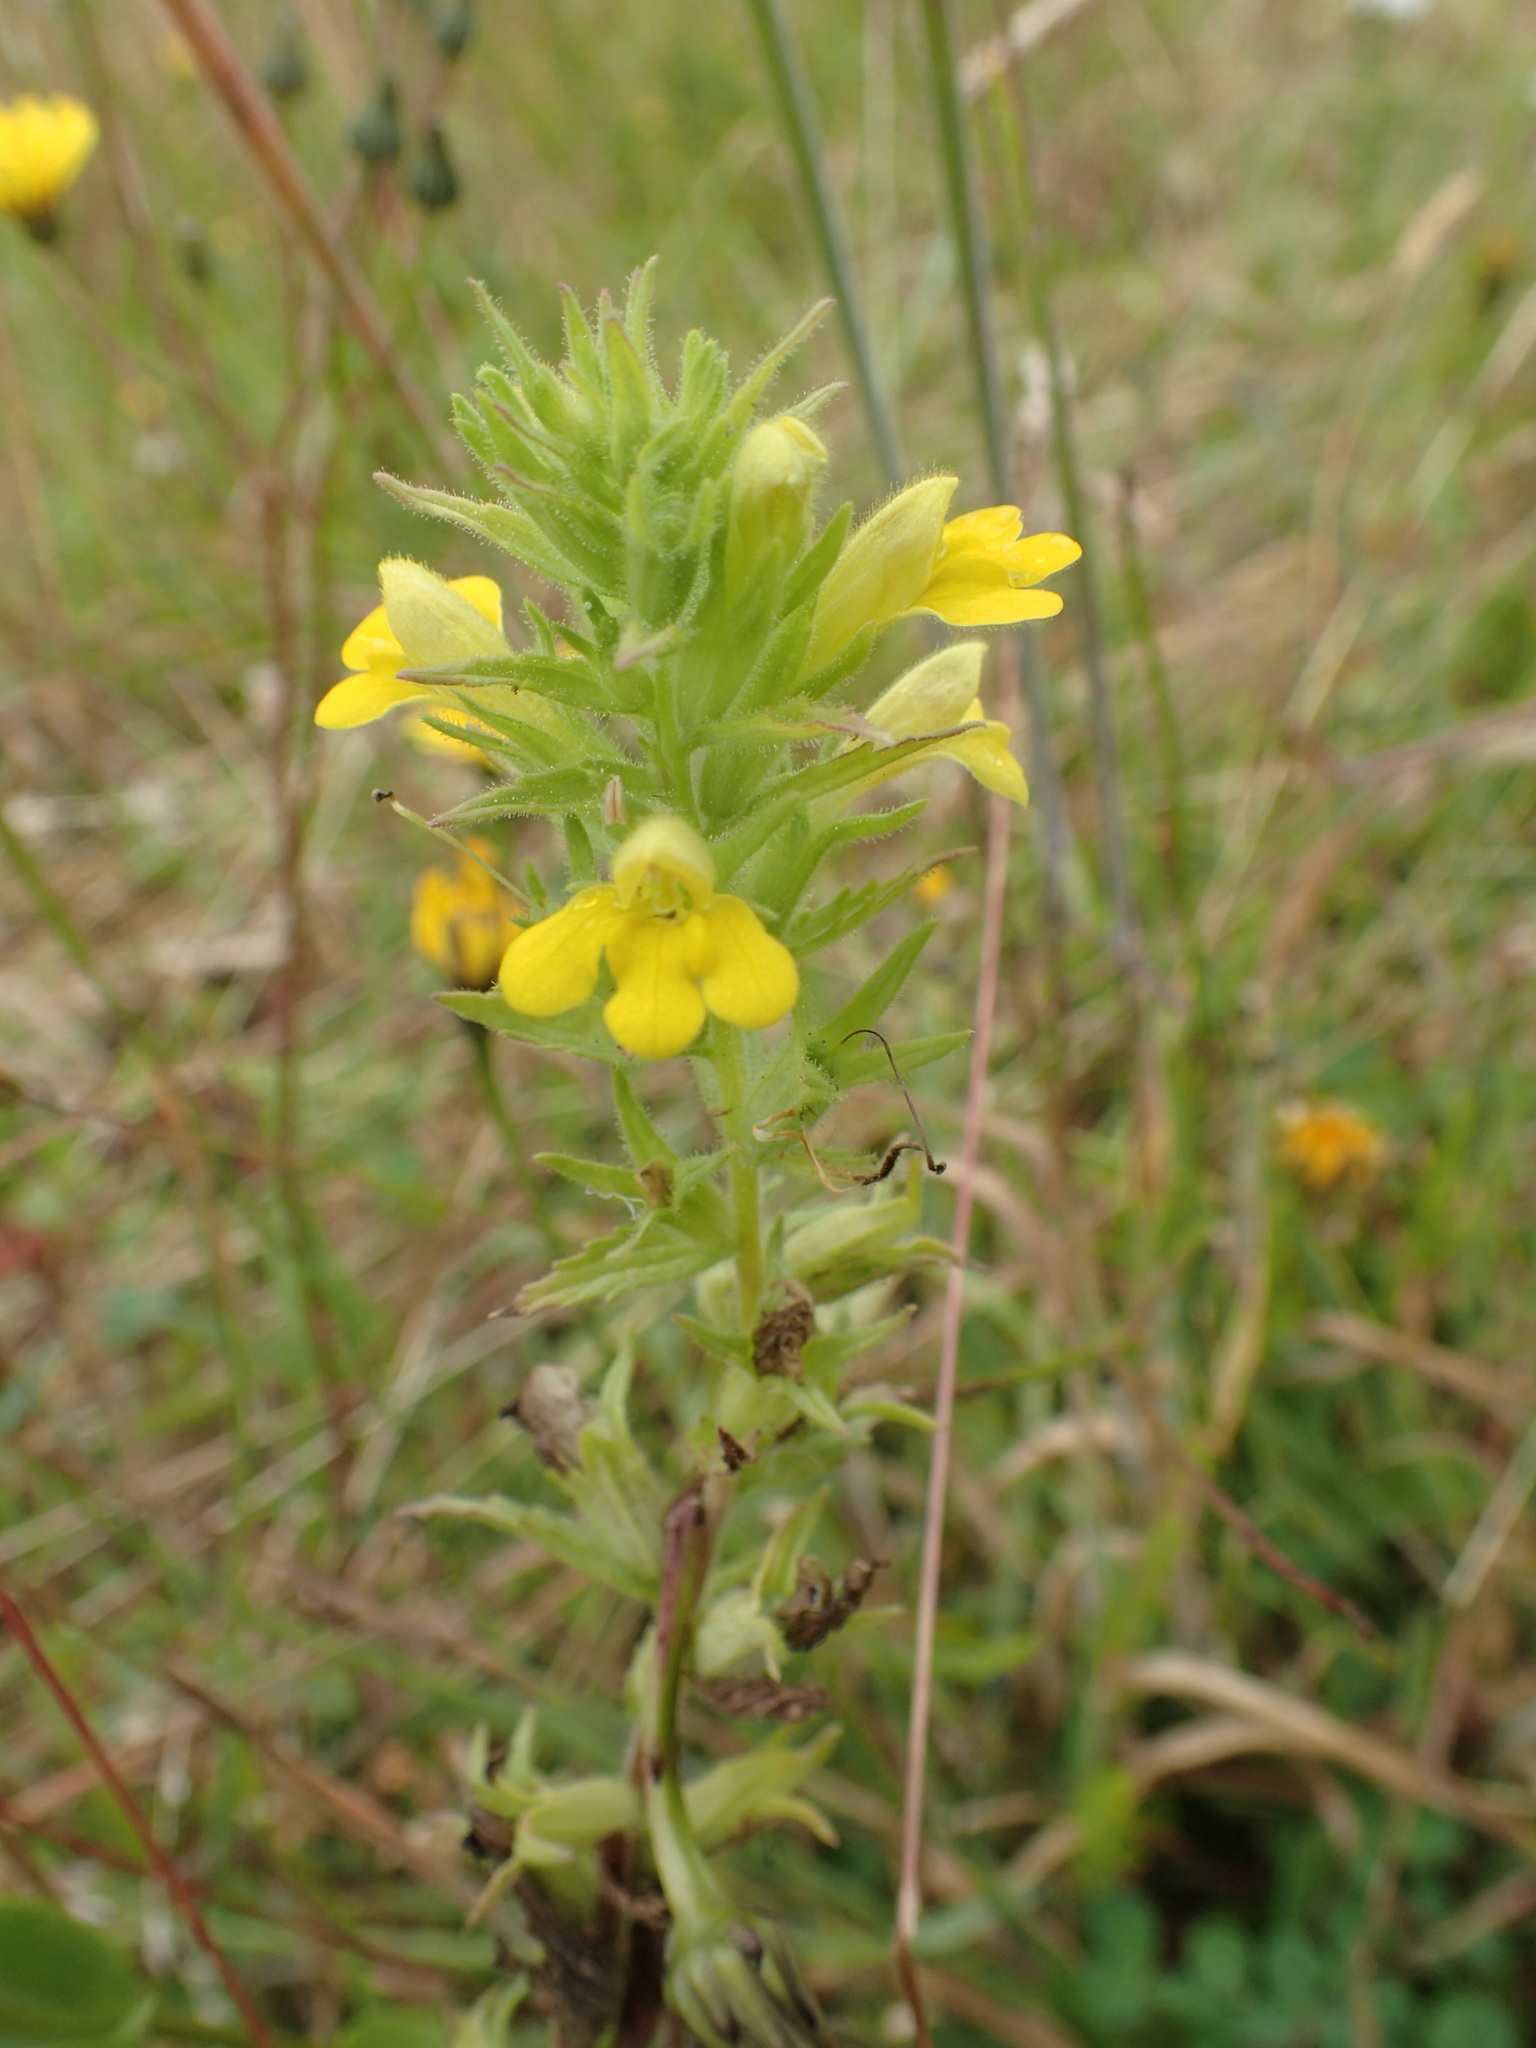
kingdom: Plantae
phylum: Tracheophyta
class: Magnoliopsida
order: Lamiales
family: Orobanchaceae
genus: Bellardia
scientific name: Bellardia viscosa
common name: Sticky parentucellia
